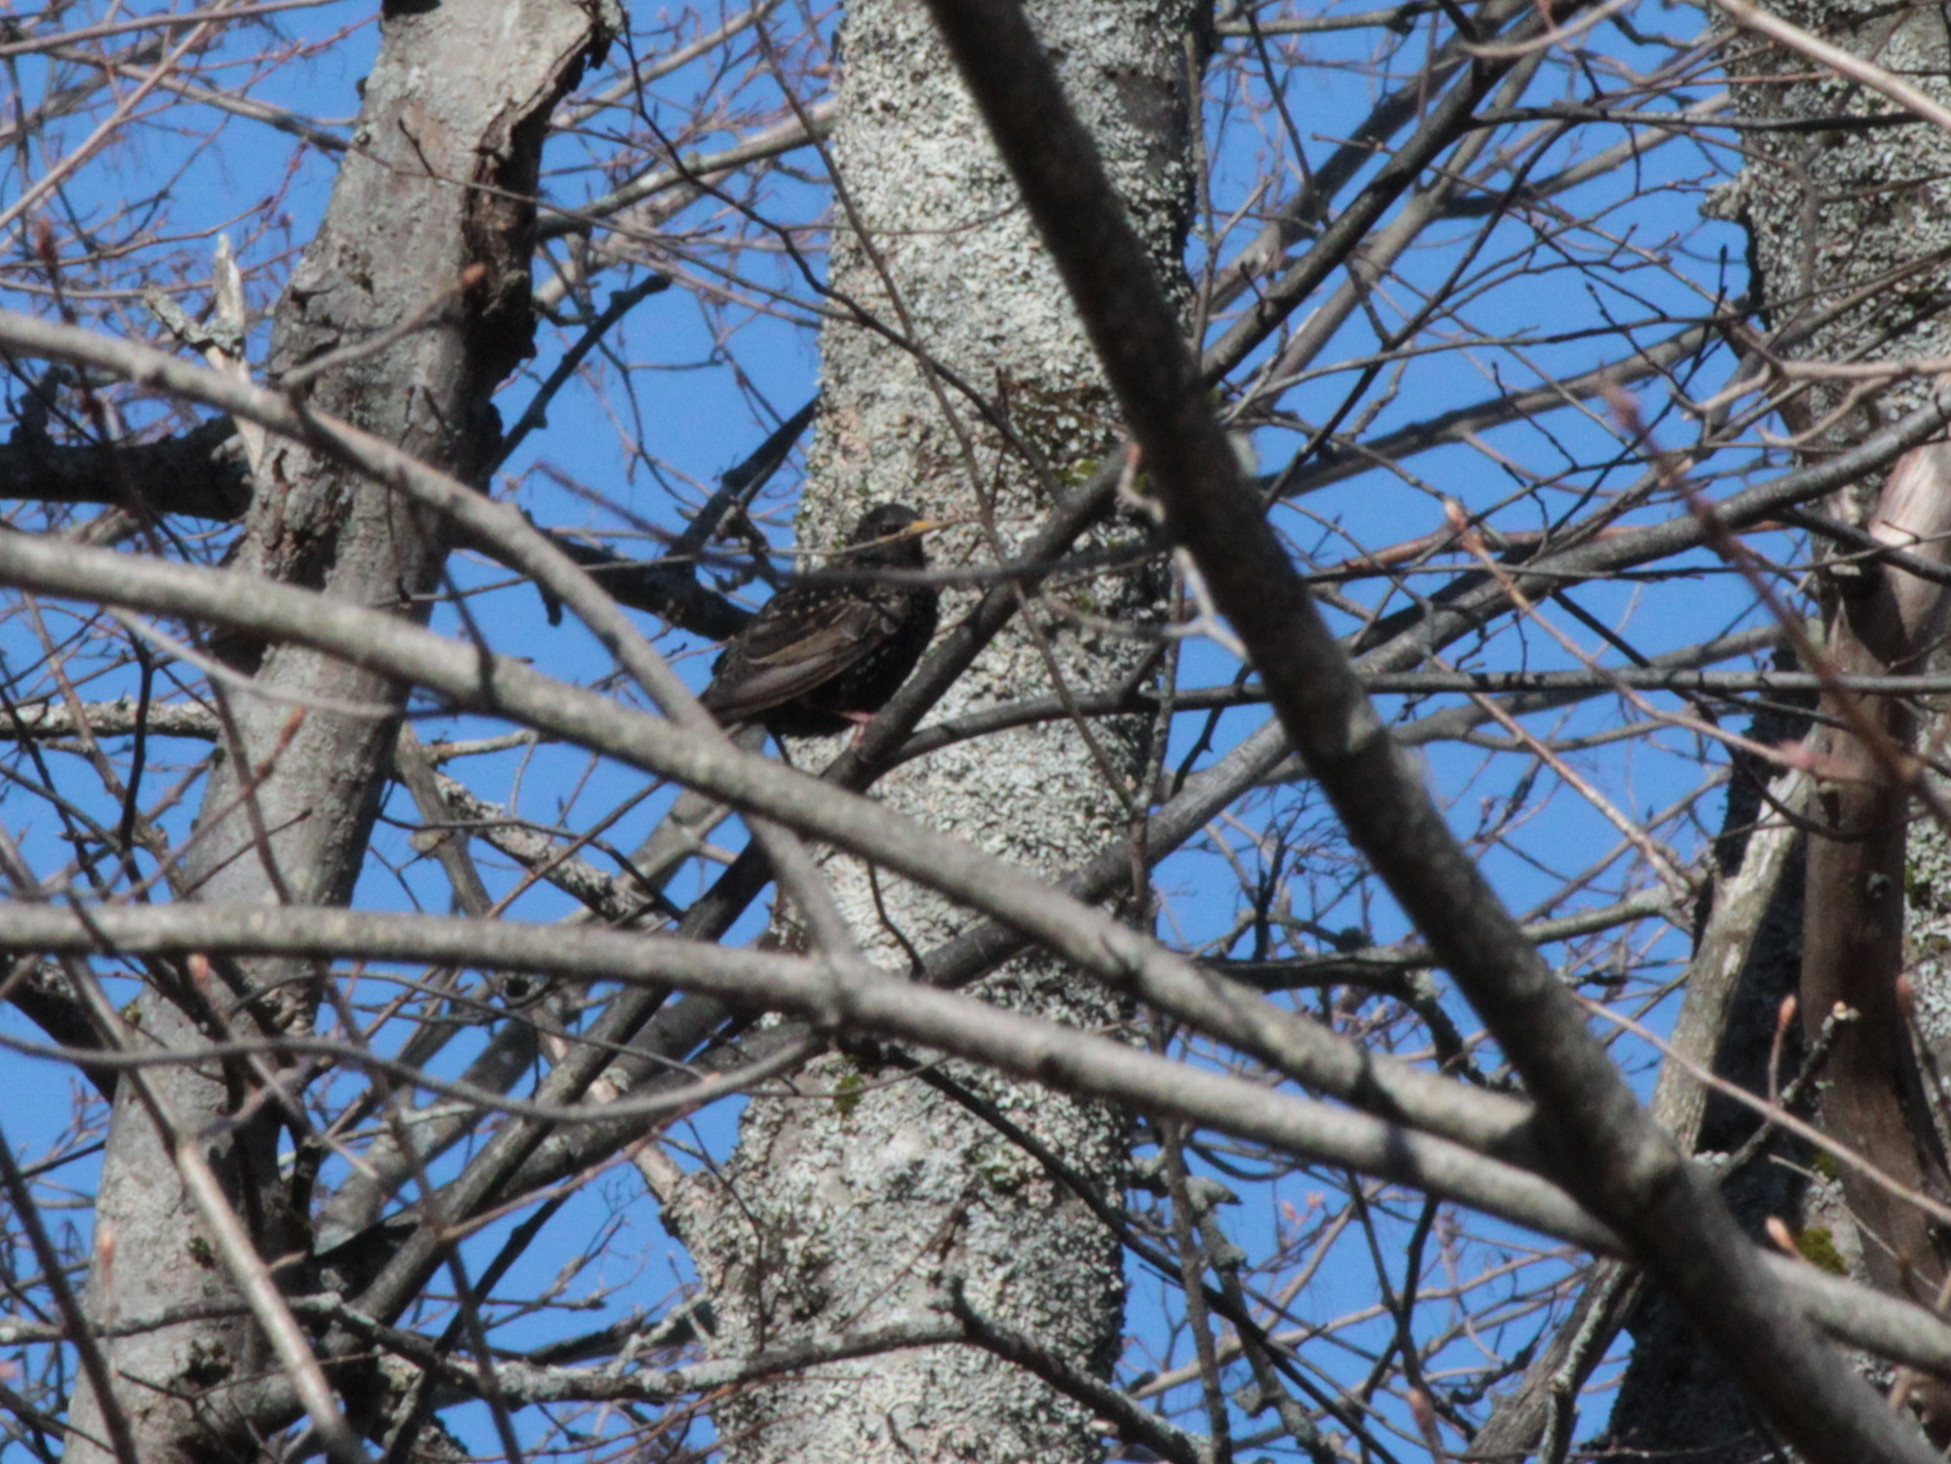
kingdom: Animalia
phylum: Chordata
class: Aves
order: Passeriformes
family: Sturnidae
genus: Sturnus
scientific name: Sturnus vulgaris
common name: Common starling
